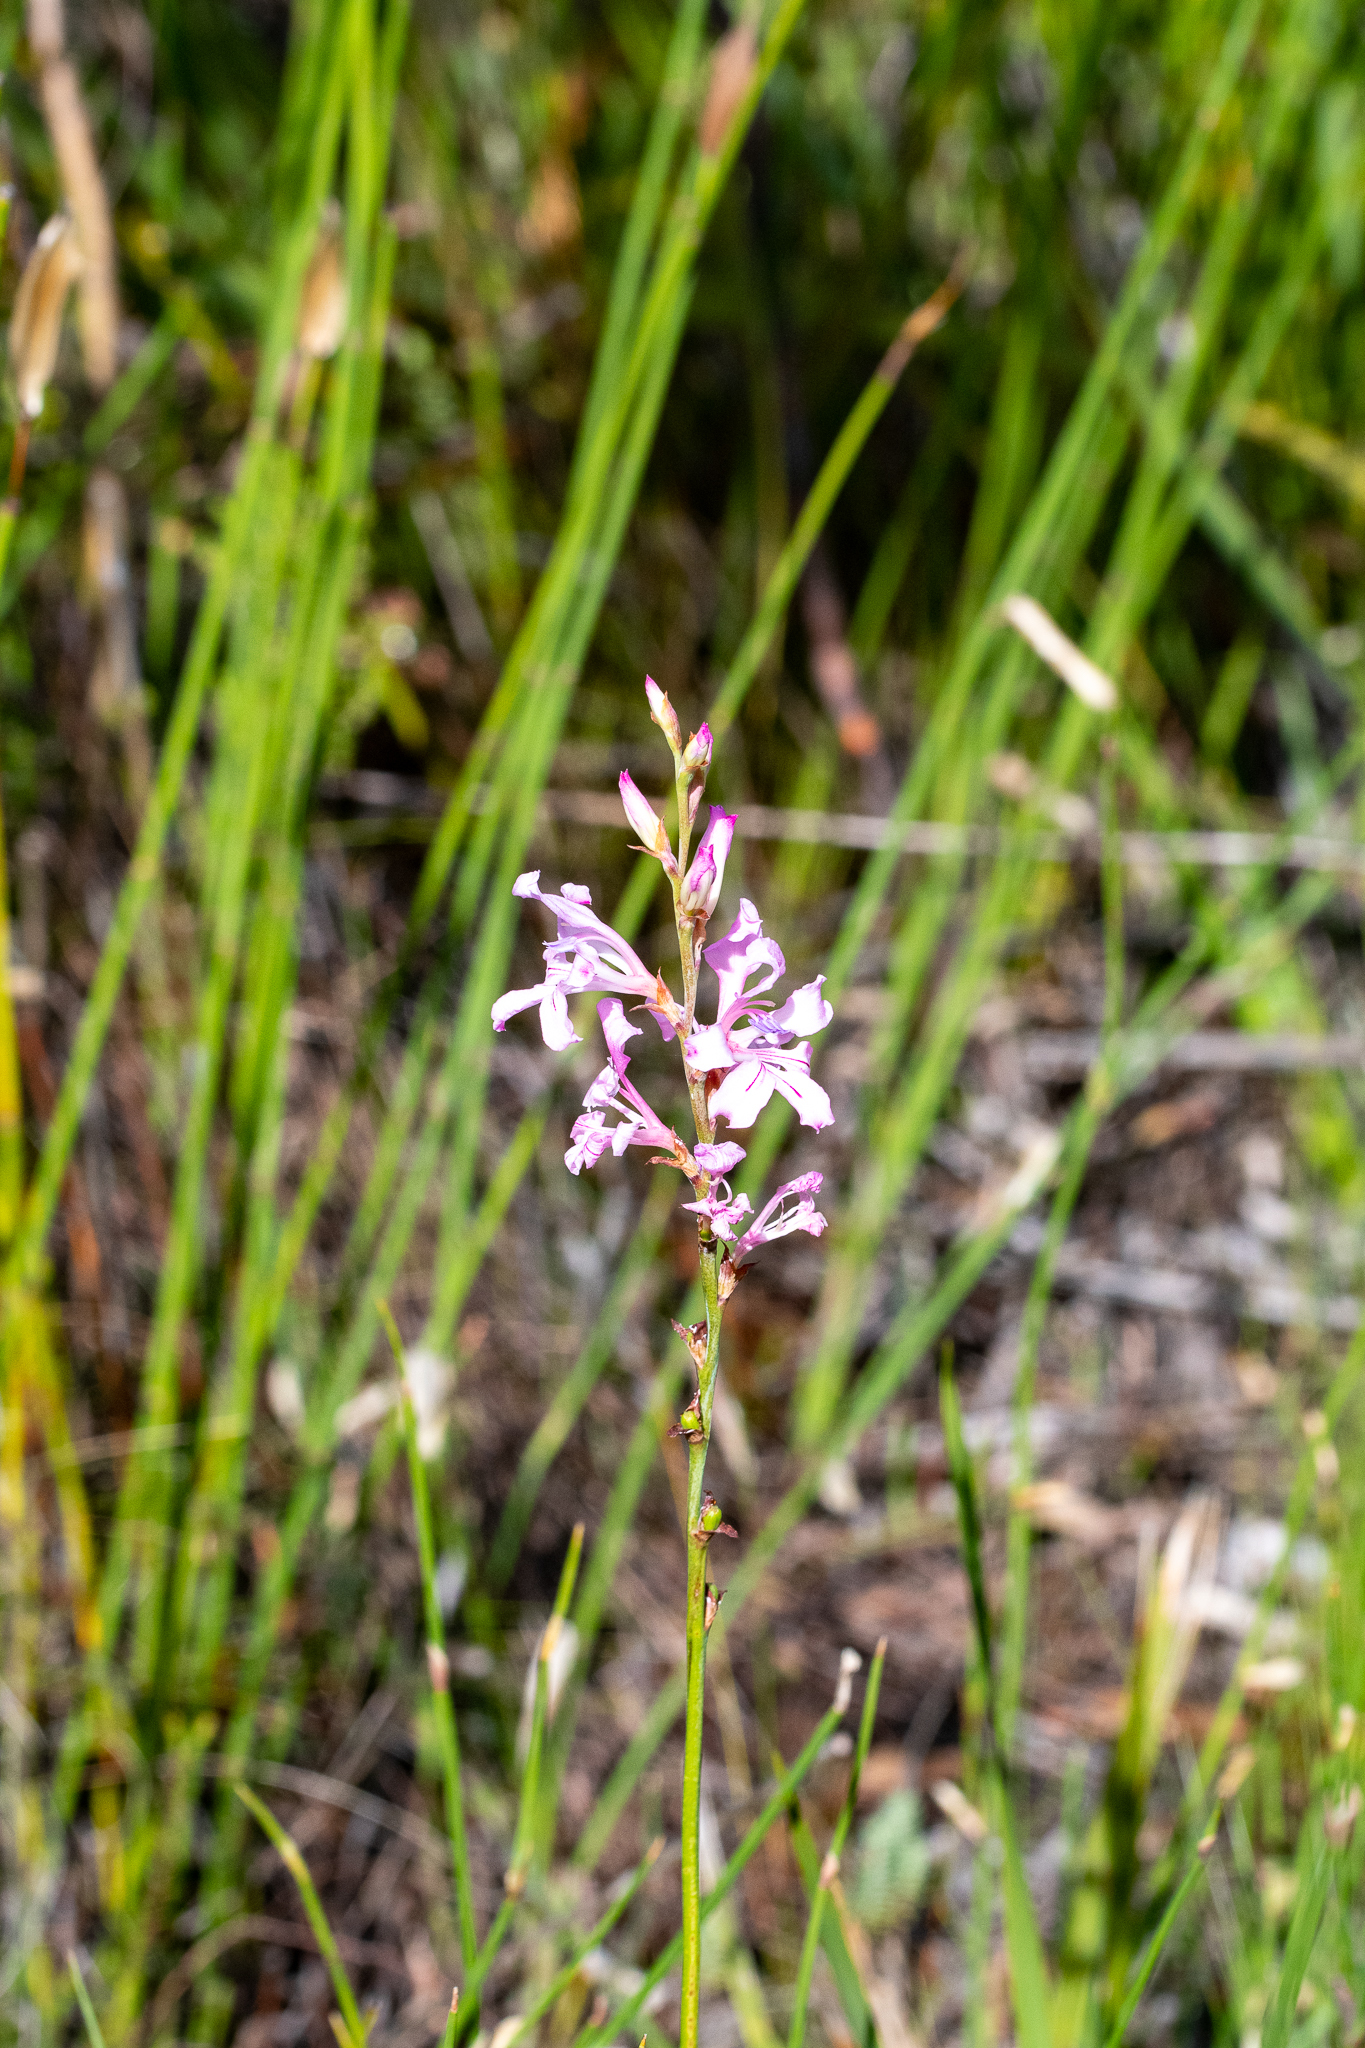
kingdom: Plantae
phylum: Tracheophyta
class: Liliopsida
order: Asparagales
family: Iridaceae
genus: Tritoniopsis
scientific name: Tritoniopsis lata
